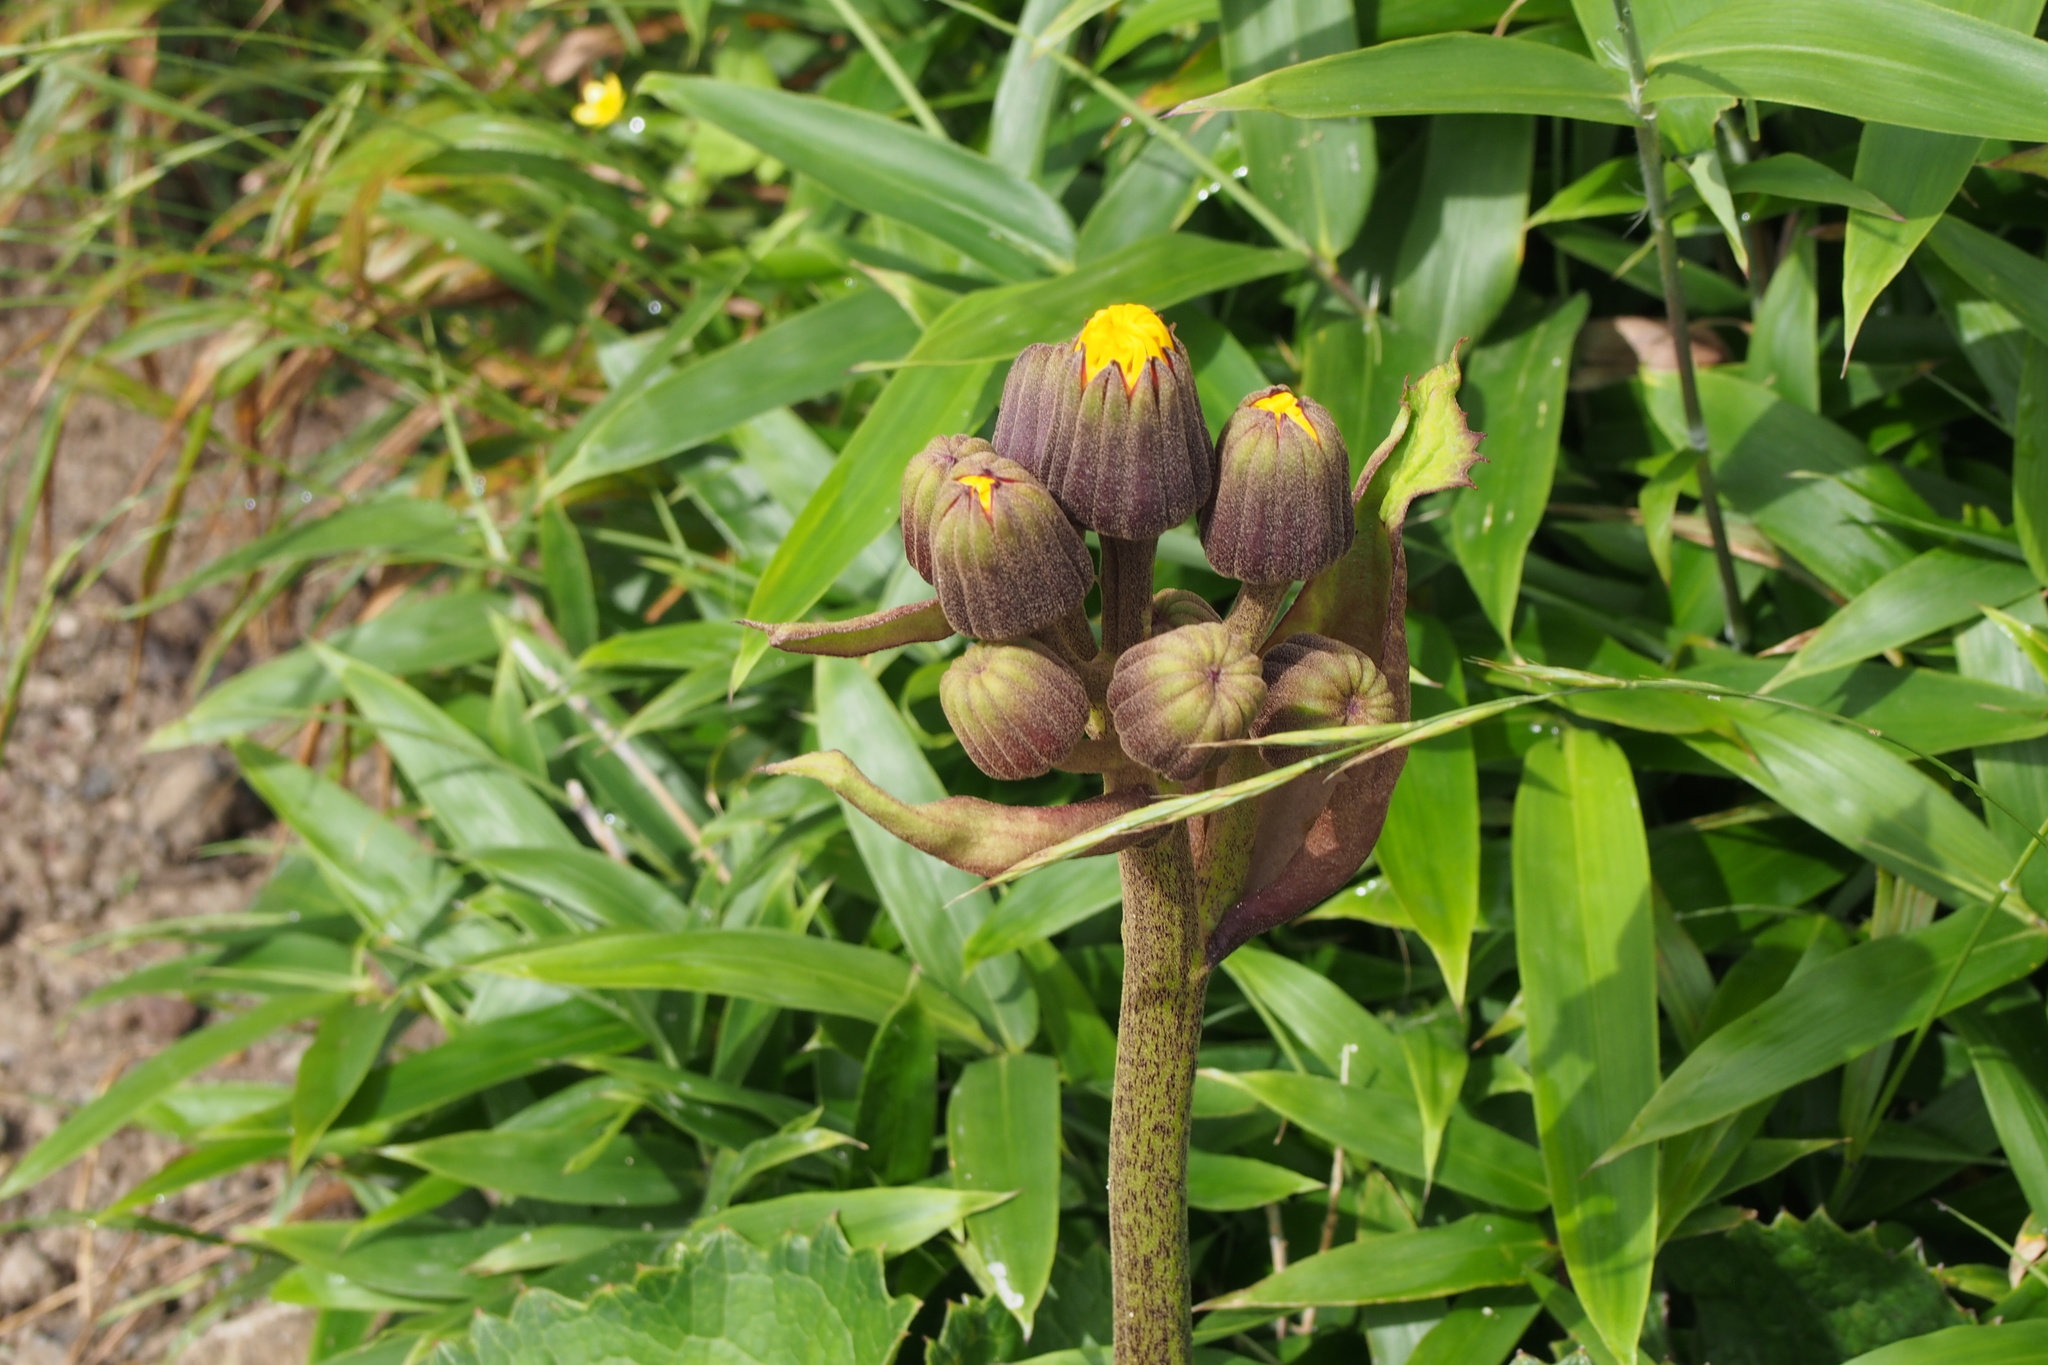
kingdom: Plantae
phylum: Tracheophyta
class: Magnoliopsida
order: Asterales
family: Asteraceae
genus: Ligularia
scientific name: Ligularia dentata
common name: Leopardplant
